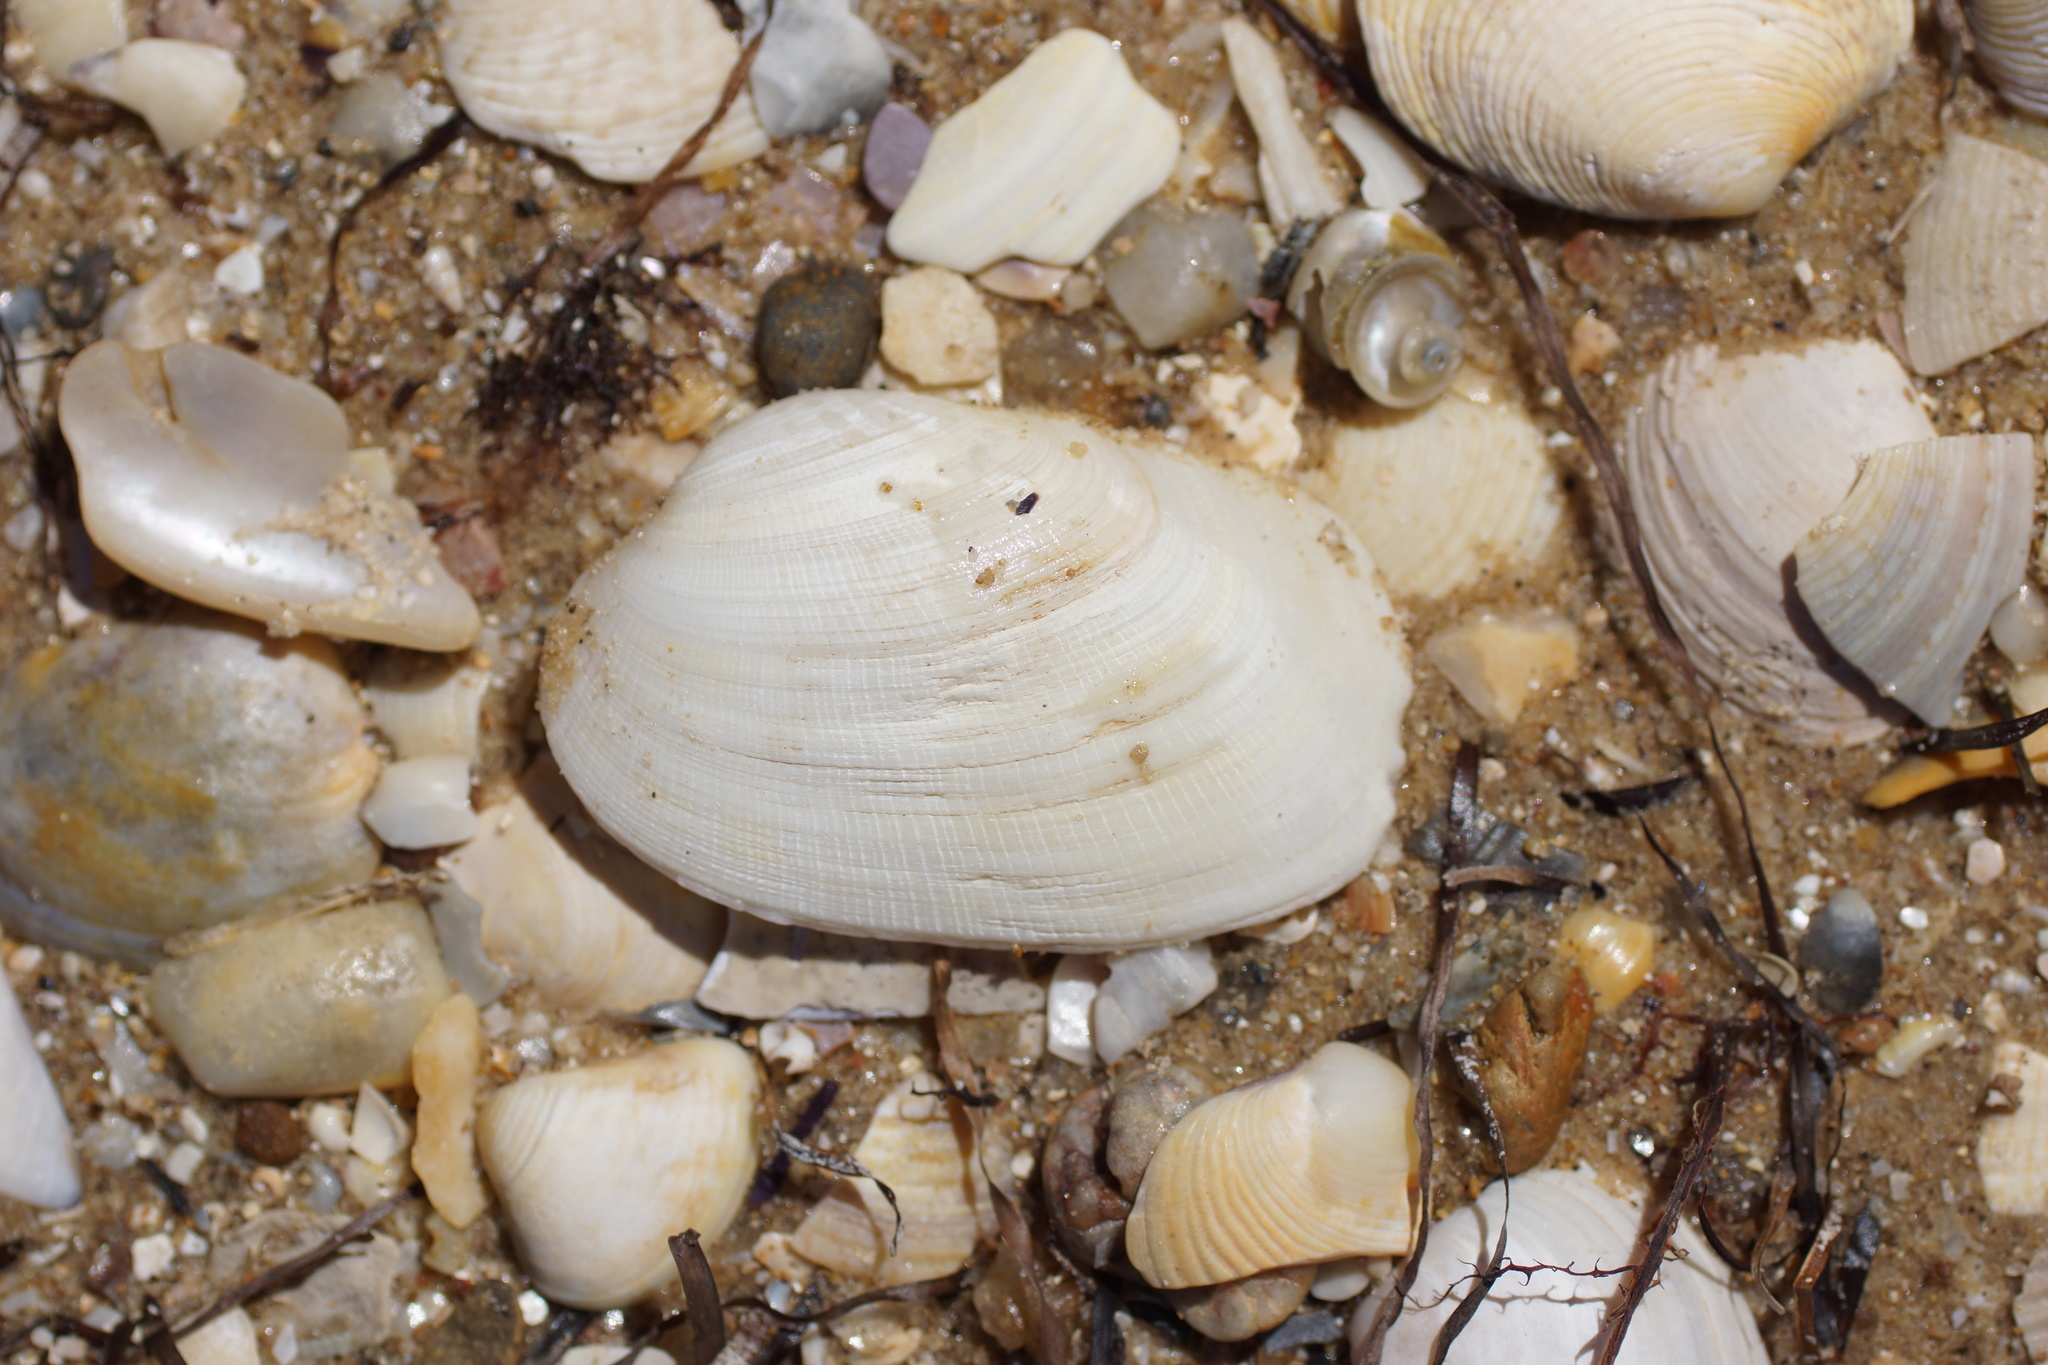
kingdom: Animalia
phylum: Mollusca
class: Bivalvia
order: Venerida
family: Veneridae
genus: Venerupis
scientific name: Venerupis galactites
